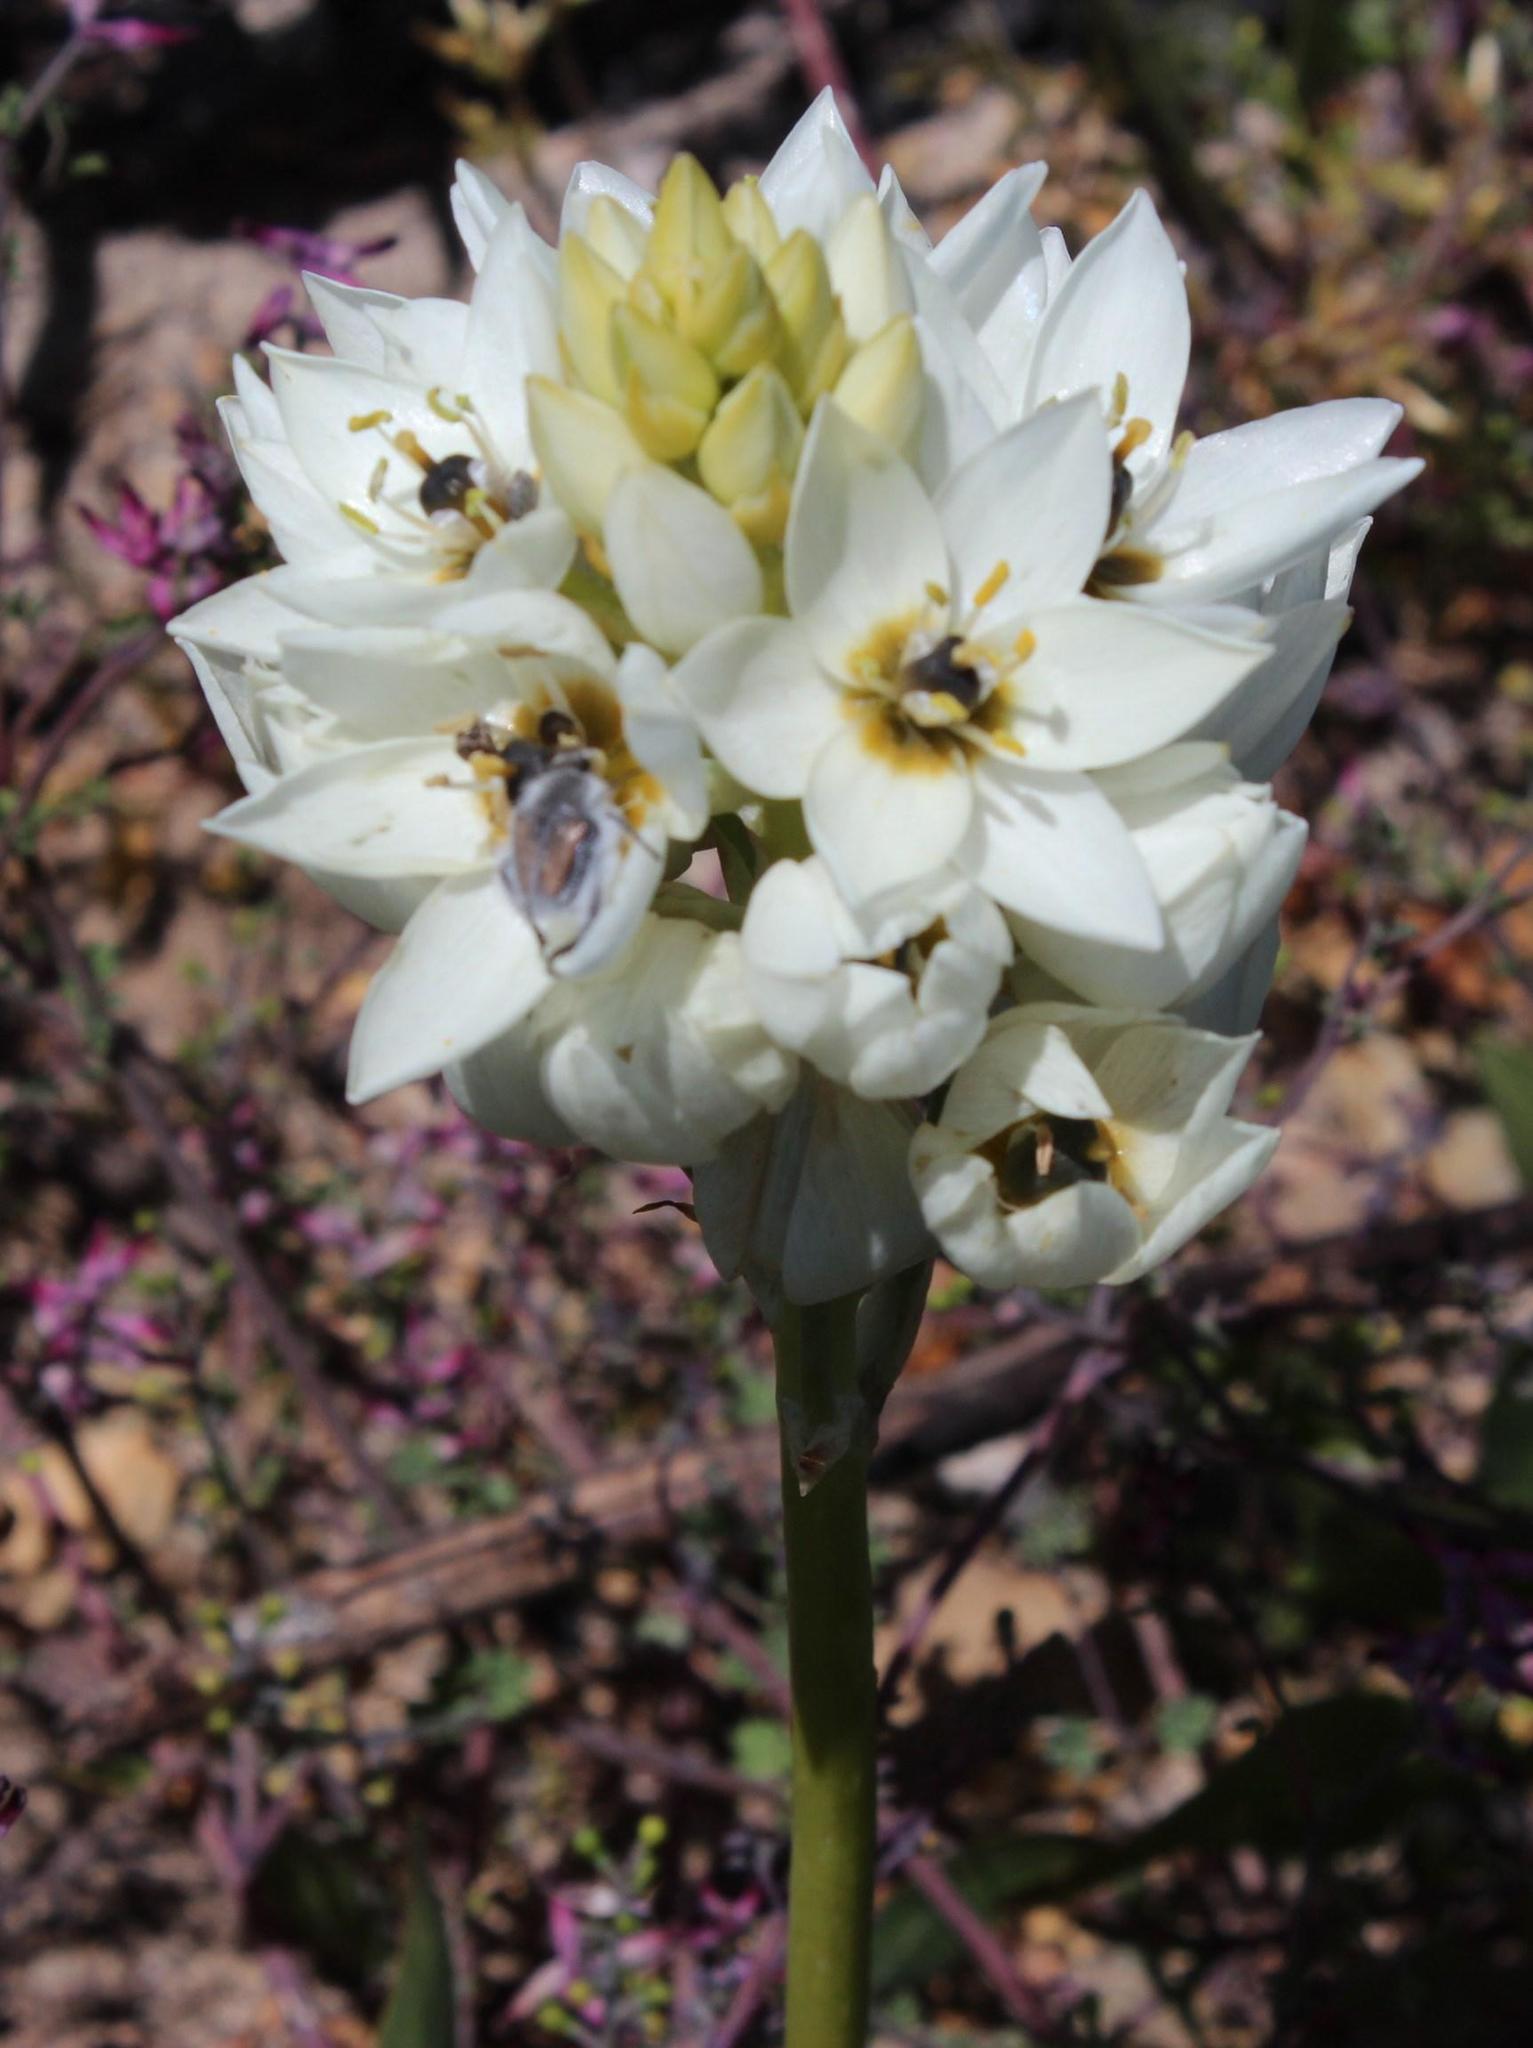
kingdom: Plantae
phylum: Tracheophyta
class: Liliopsida
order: Asparagales
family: Asparagaceae
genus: Ornithogalum
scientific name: Ornithogalum thyrsoides
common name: Chincherinchee
